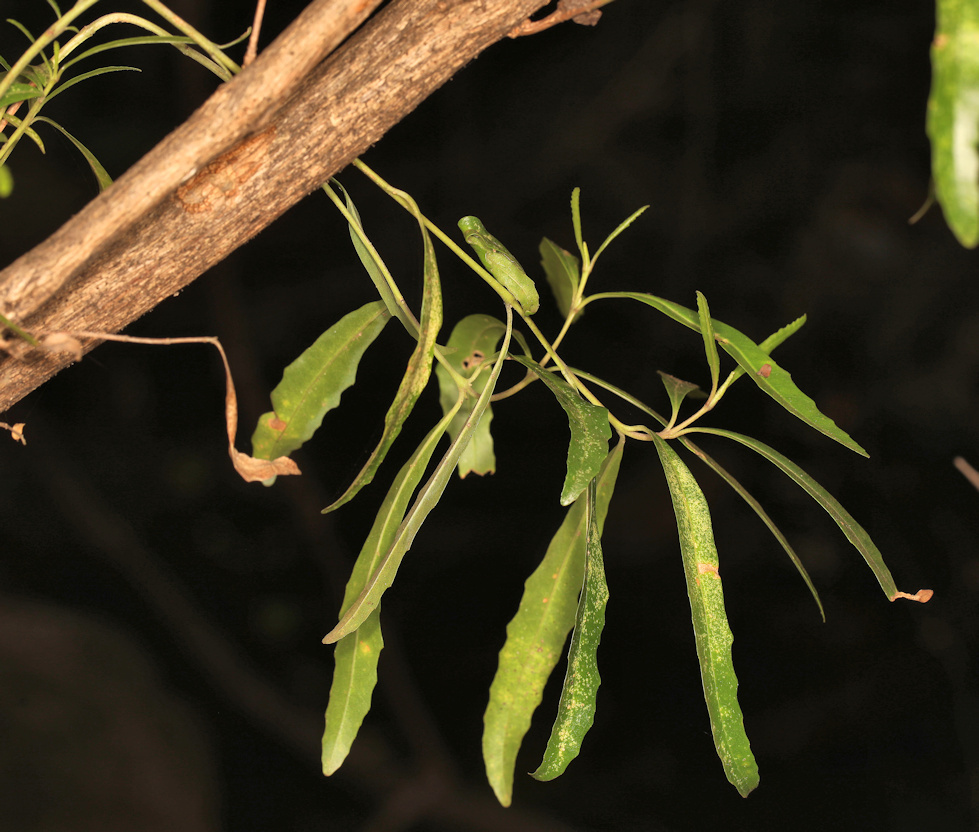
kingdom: Plantae
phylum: Tracheophyta
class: Magnoliopsida
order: Lamiales
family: Stilbaceae
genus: Nuxia
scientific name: Nuxia oppositifolia
